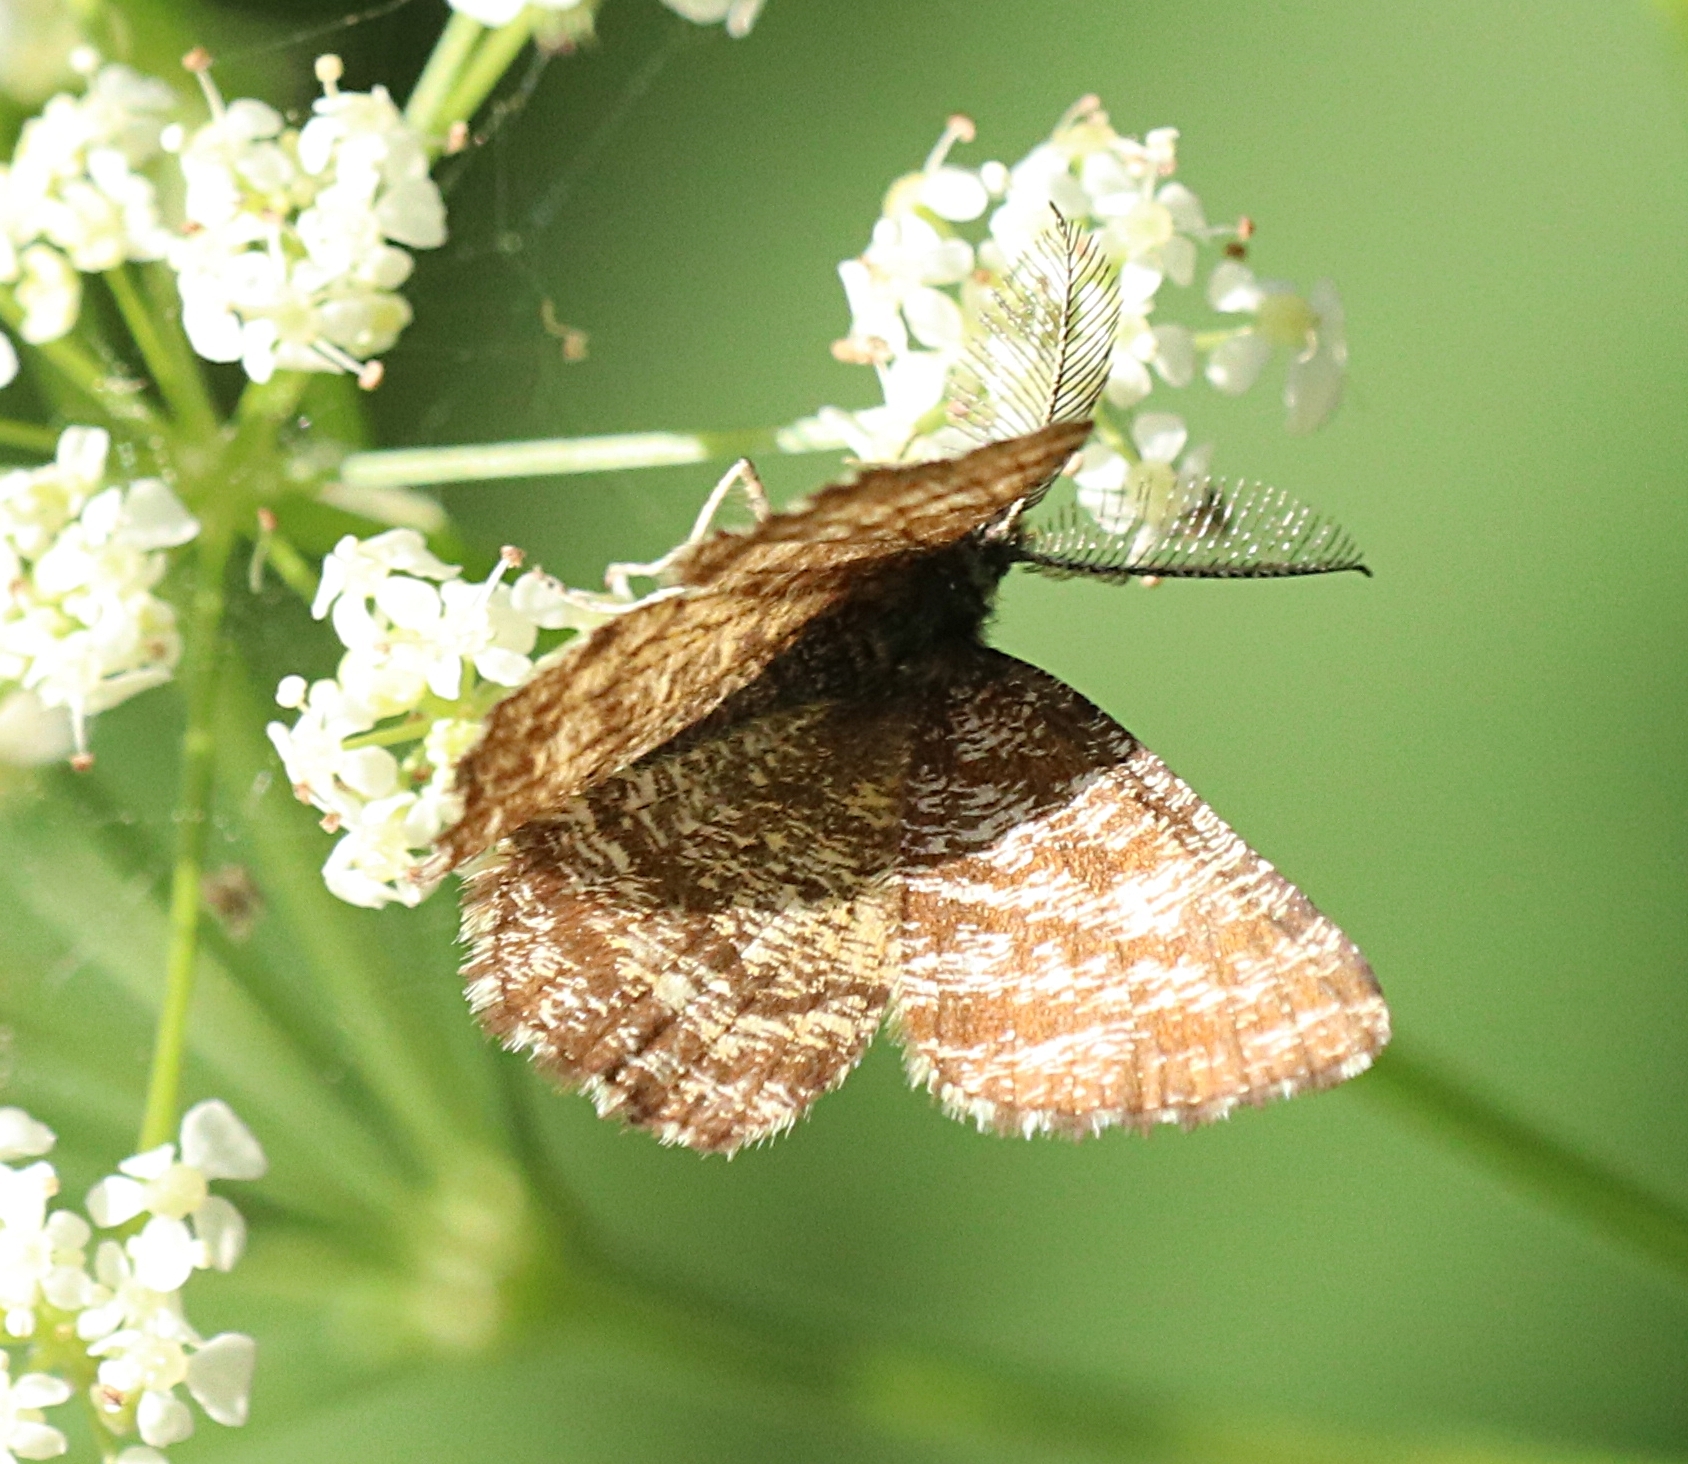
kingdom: Animalia
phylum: Arthropoda
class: Insecta
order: Lepidoptera
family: Geometridae
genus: Ematurga
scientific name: Ematurga atomaria
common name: Common heath
